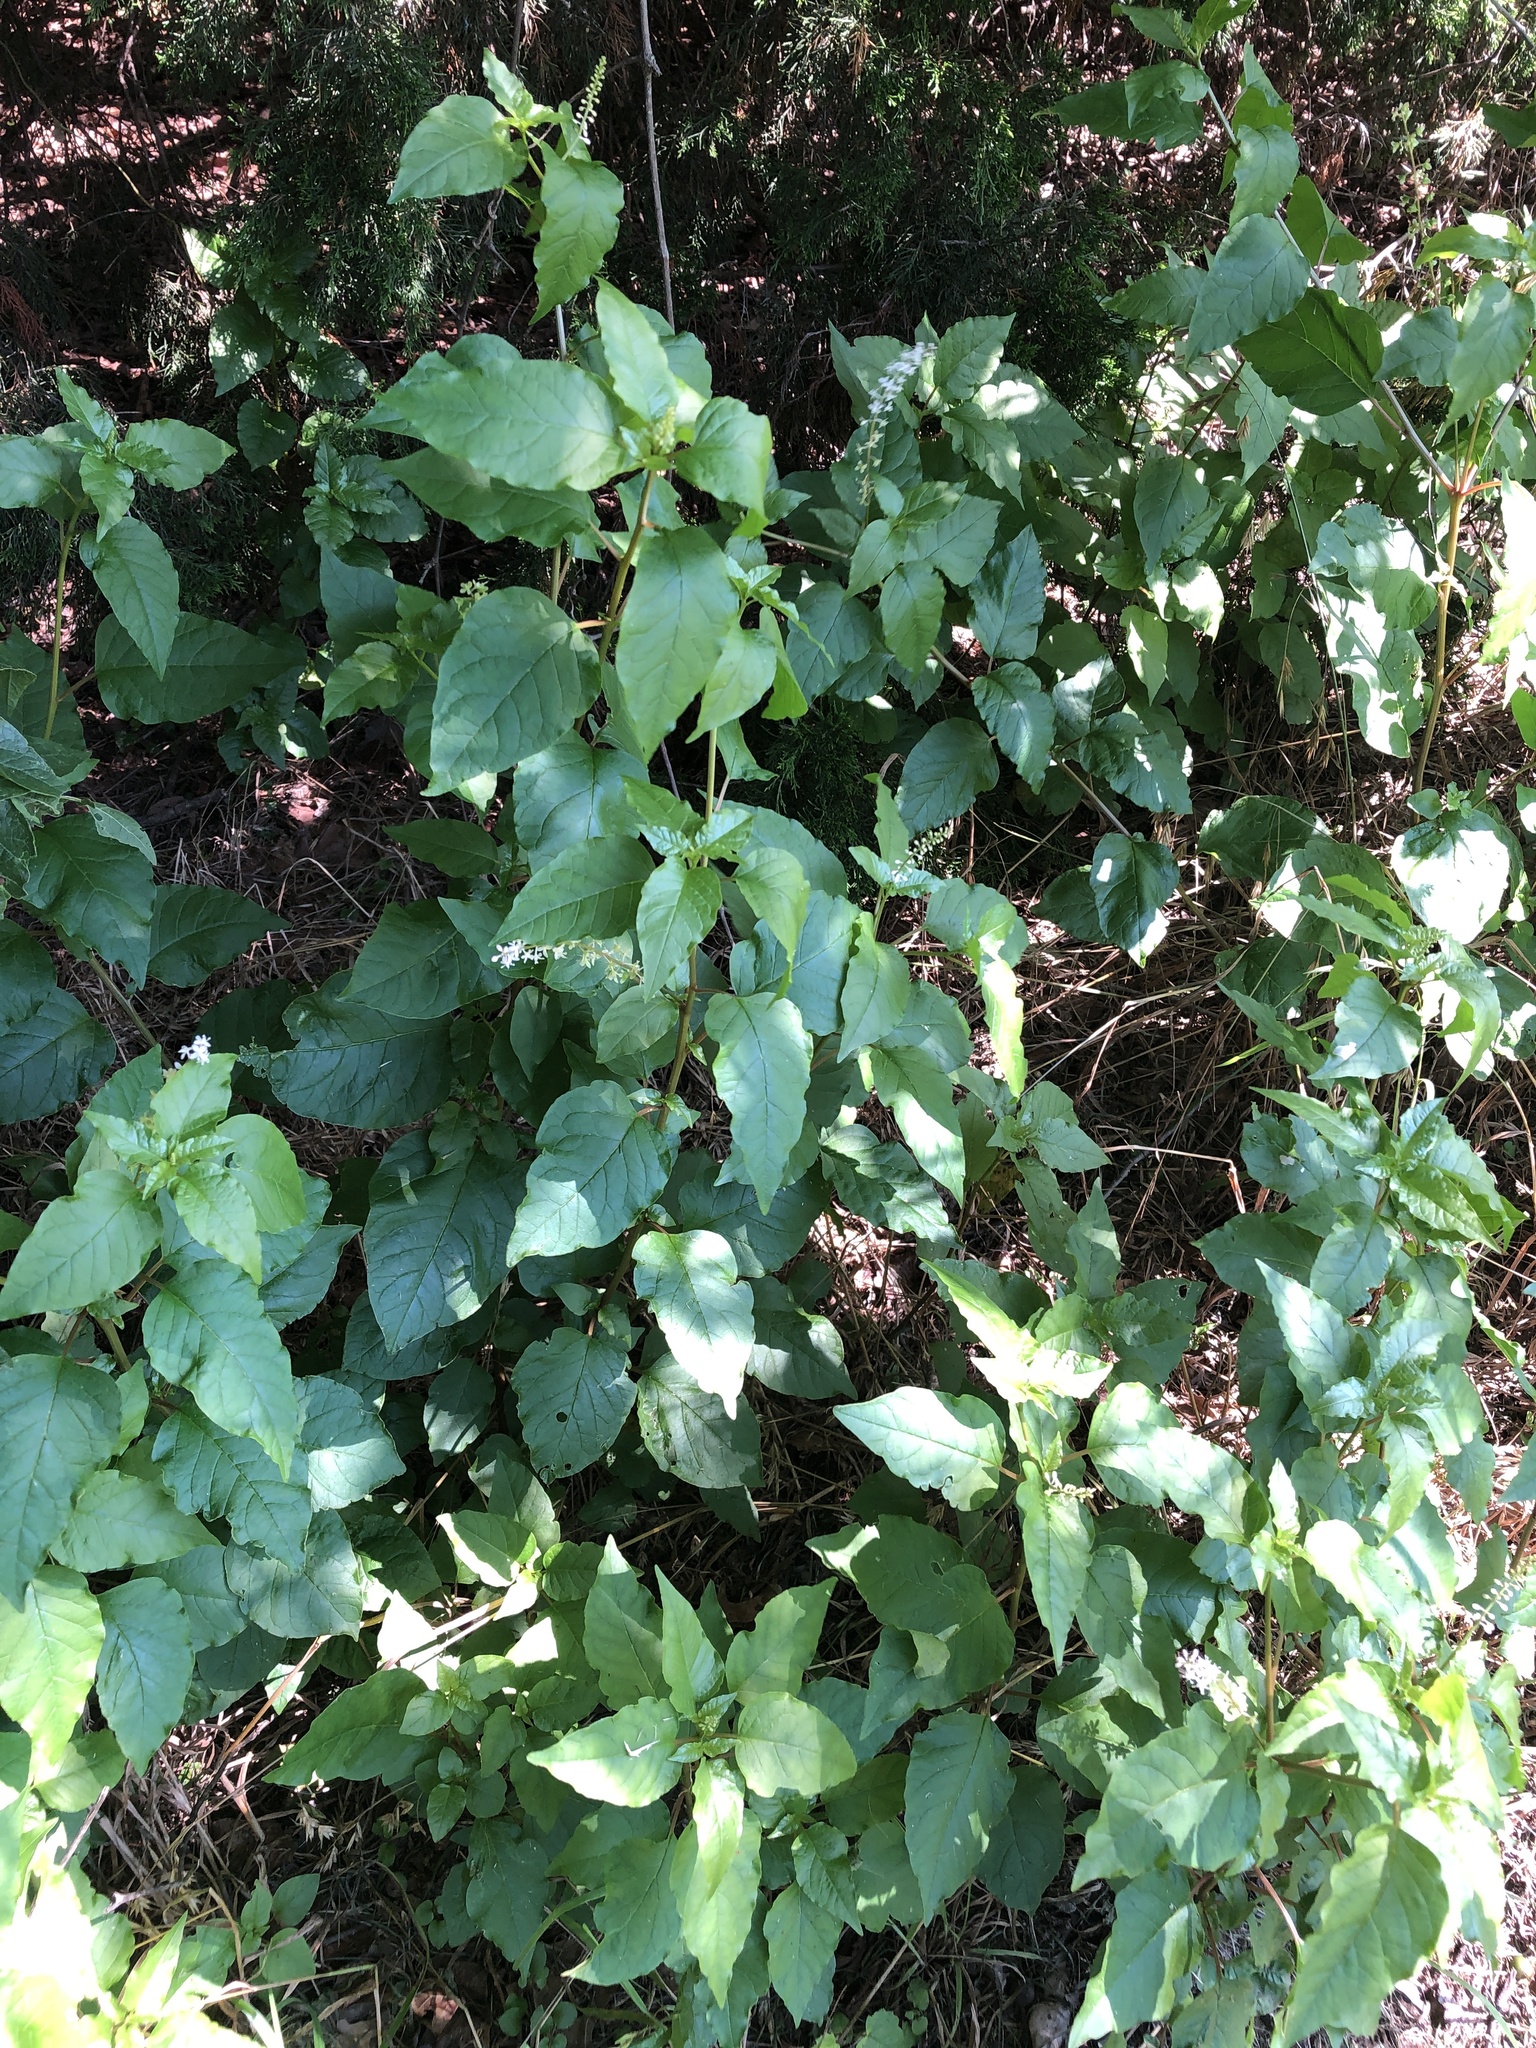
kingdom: Plantae
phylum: Tracheophyta
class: Magnoliopsida
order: Caryophyllales
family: Phytolaccaceae
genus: Rivina
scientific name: Rivina humilis
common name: Rougeplant
